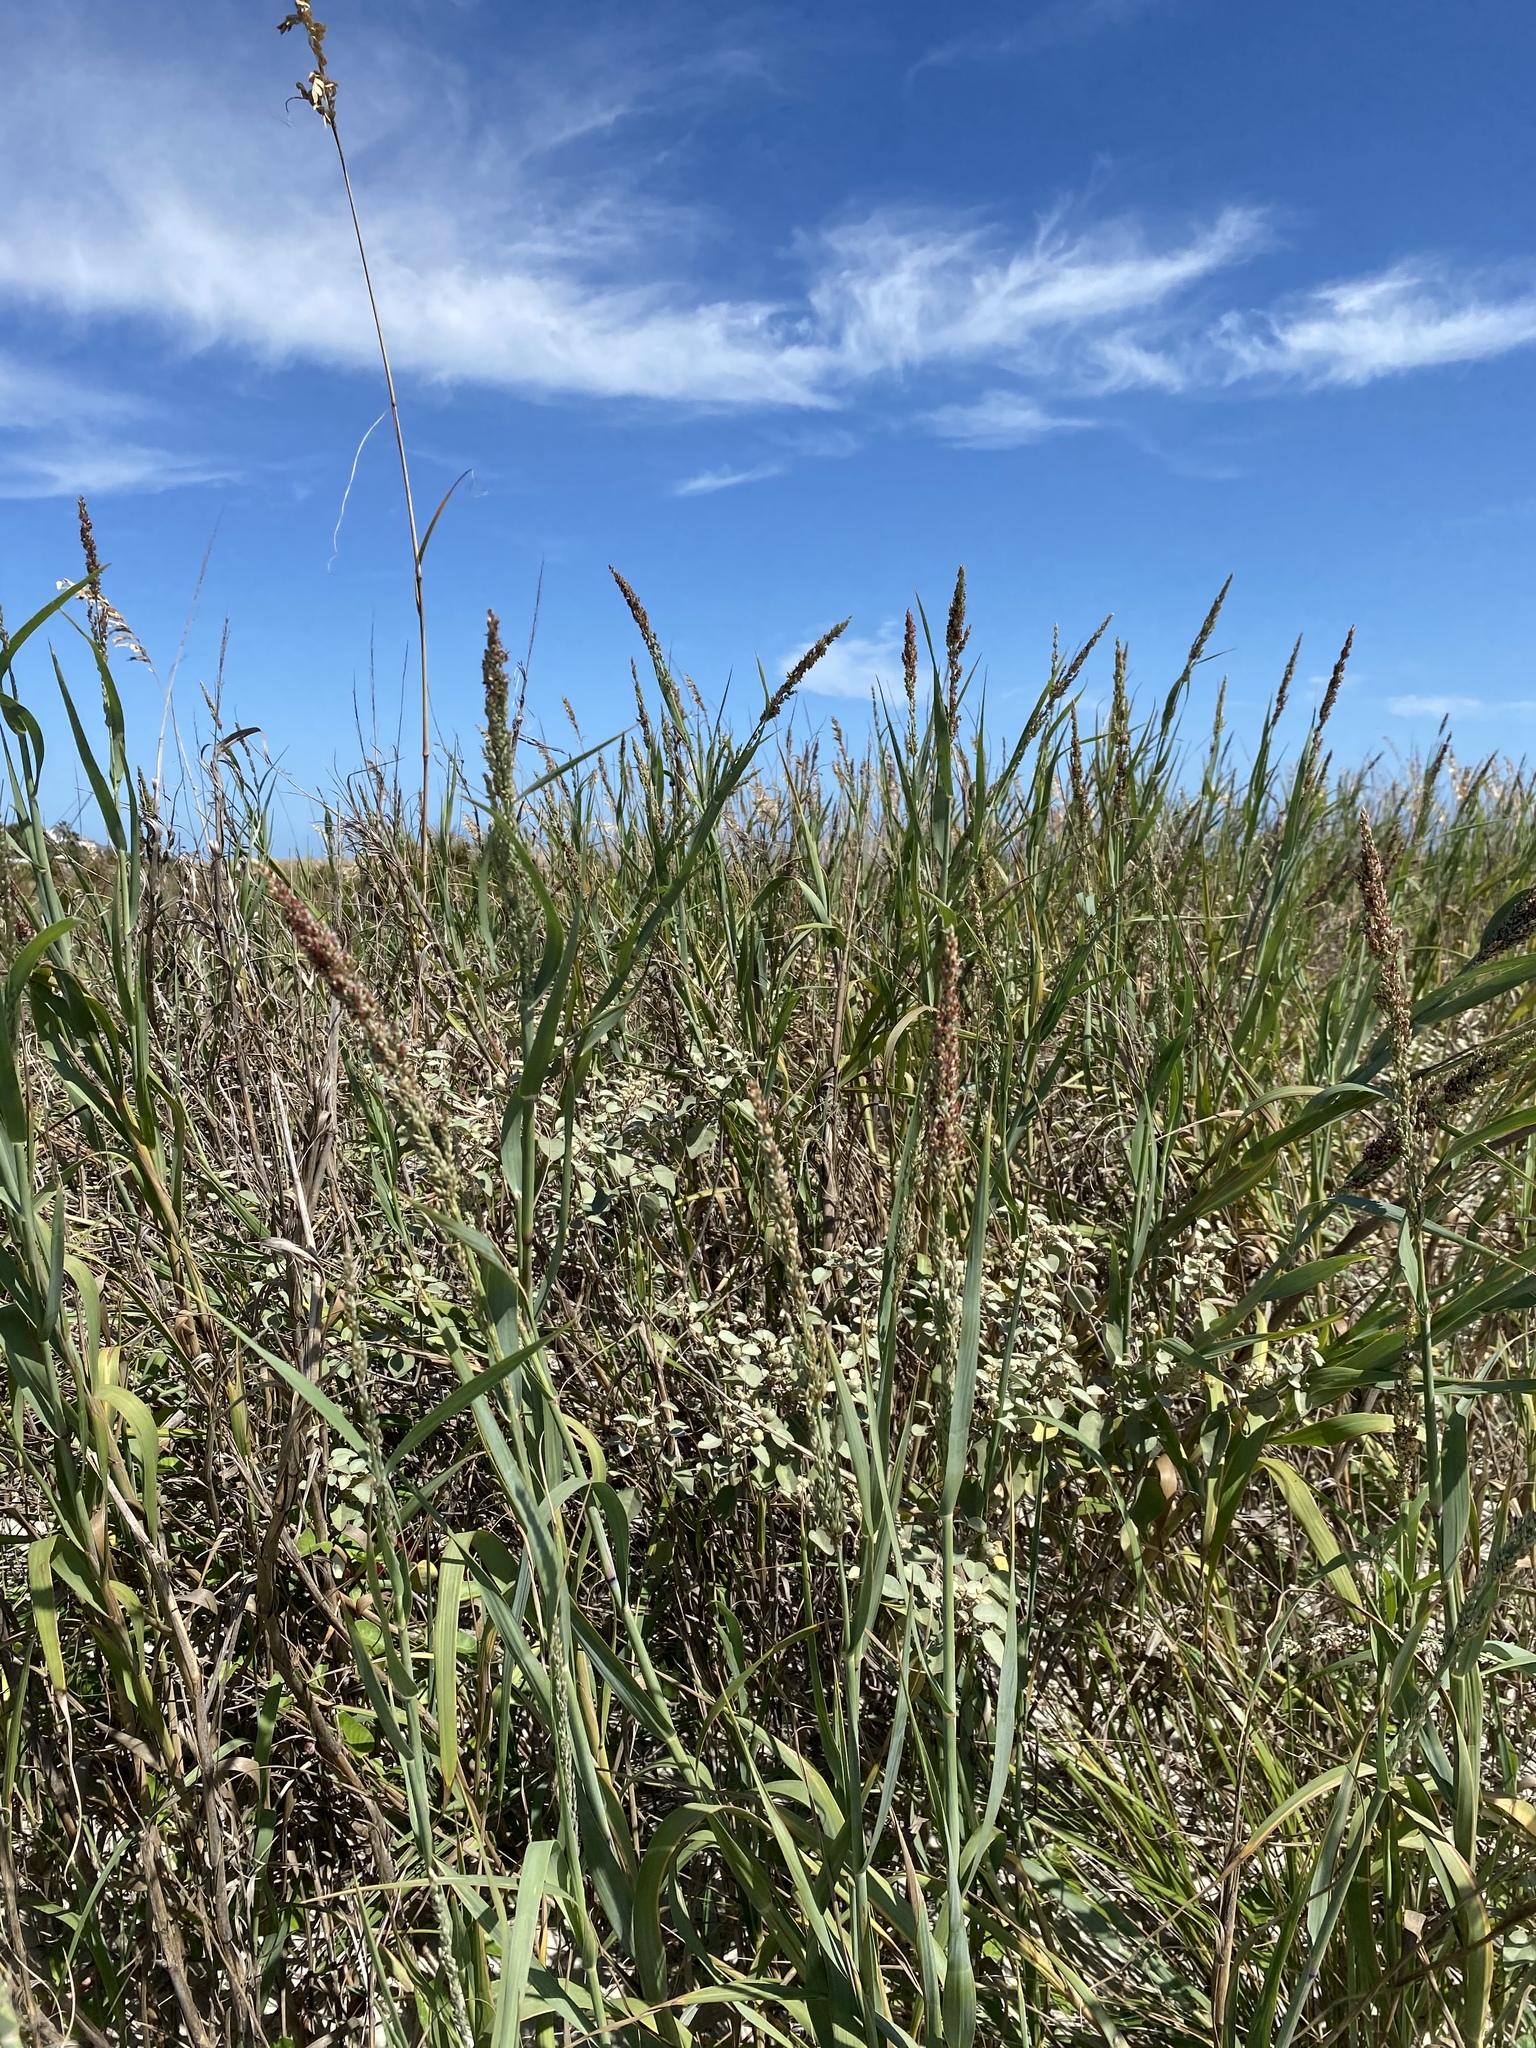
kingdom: Plantae
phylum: Tracheophyta
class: Liliopsida
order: Poales
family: Poaceae
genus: Panicum
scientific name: Panicum amarum
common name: Bitter panicum
